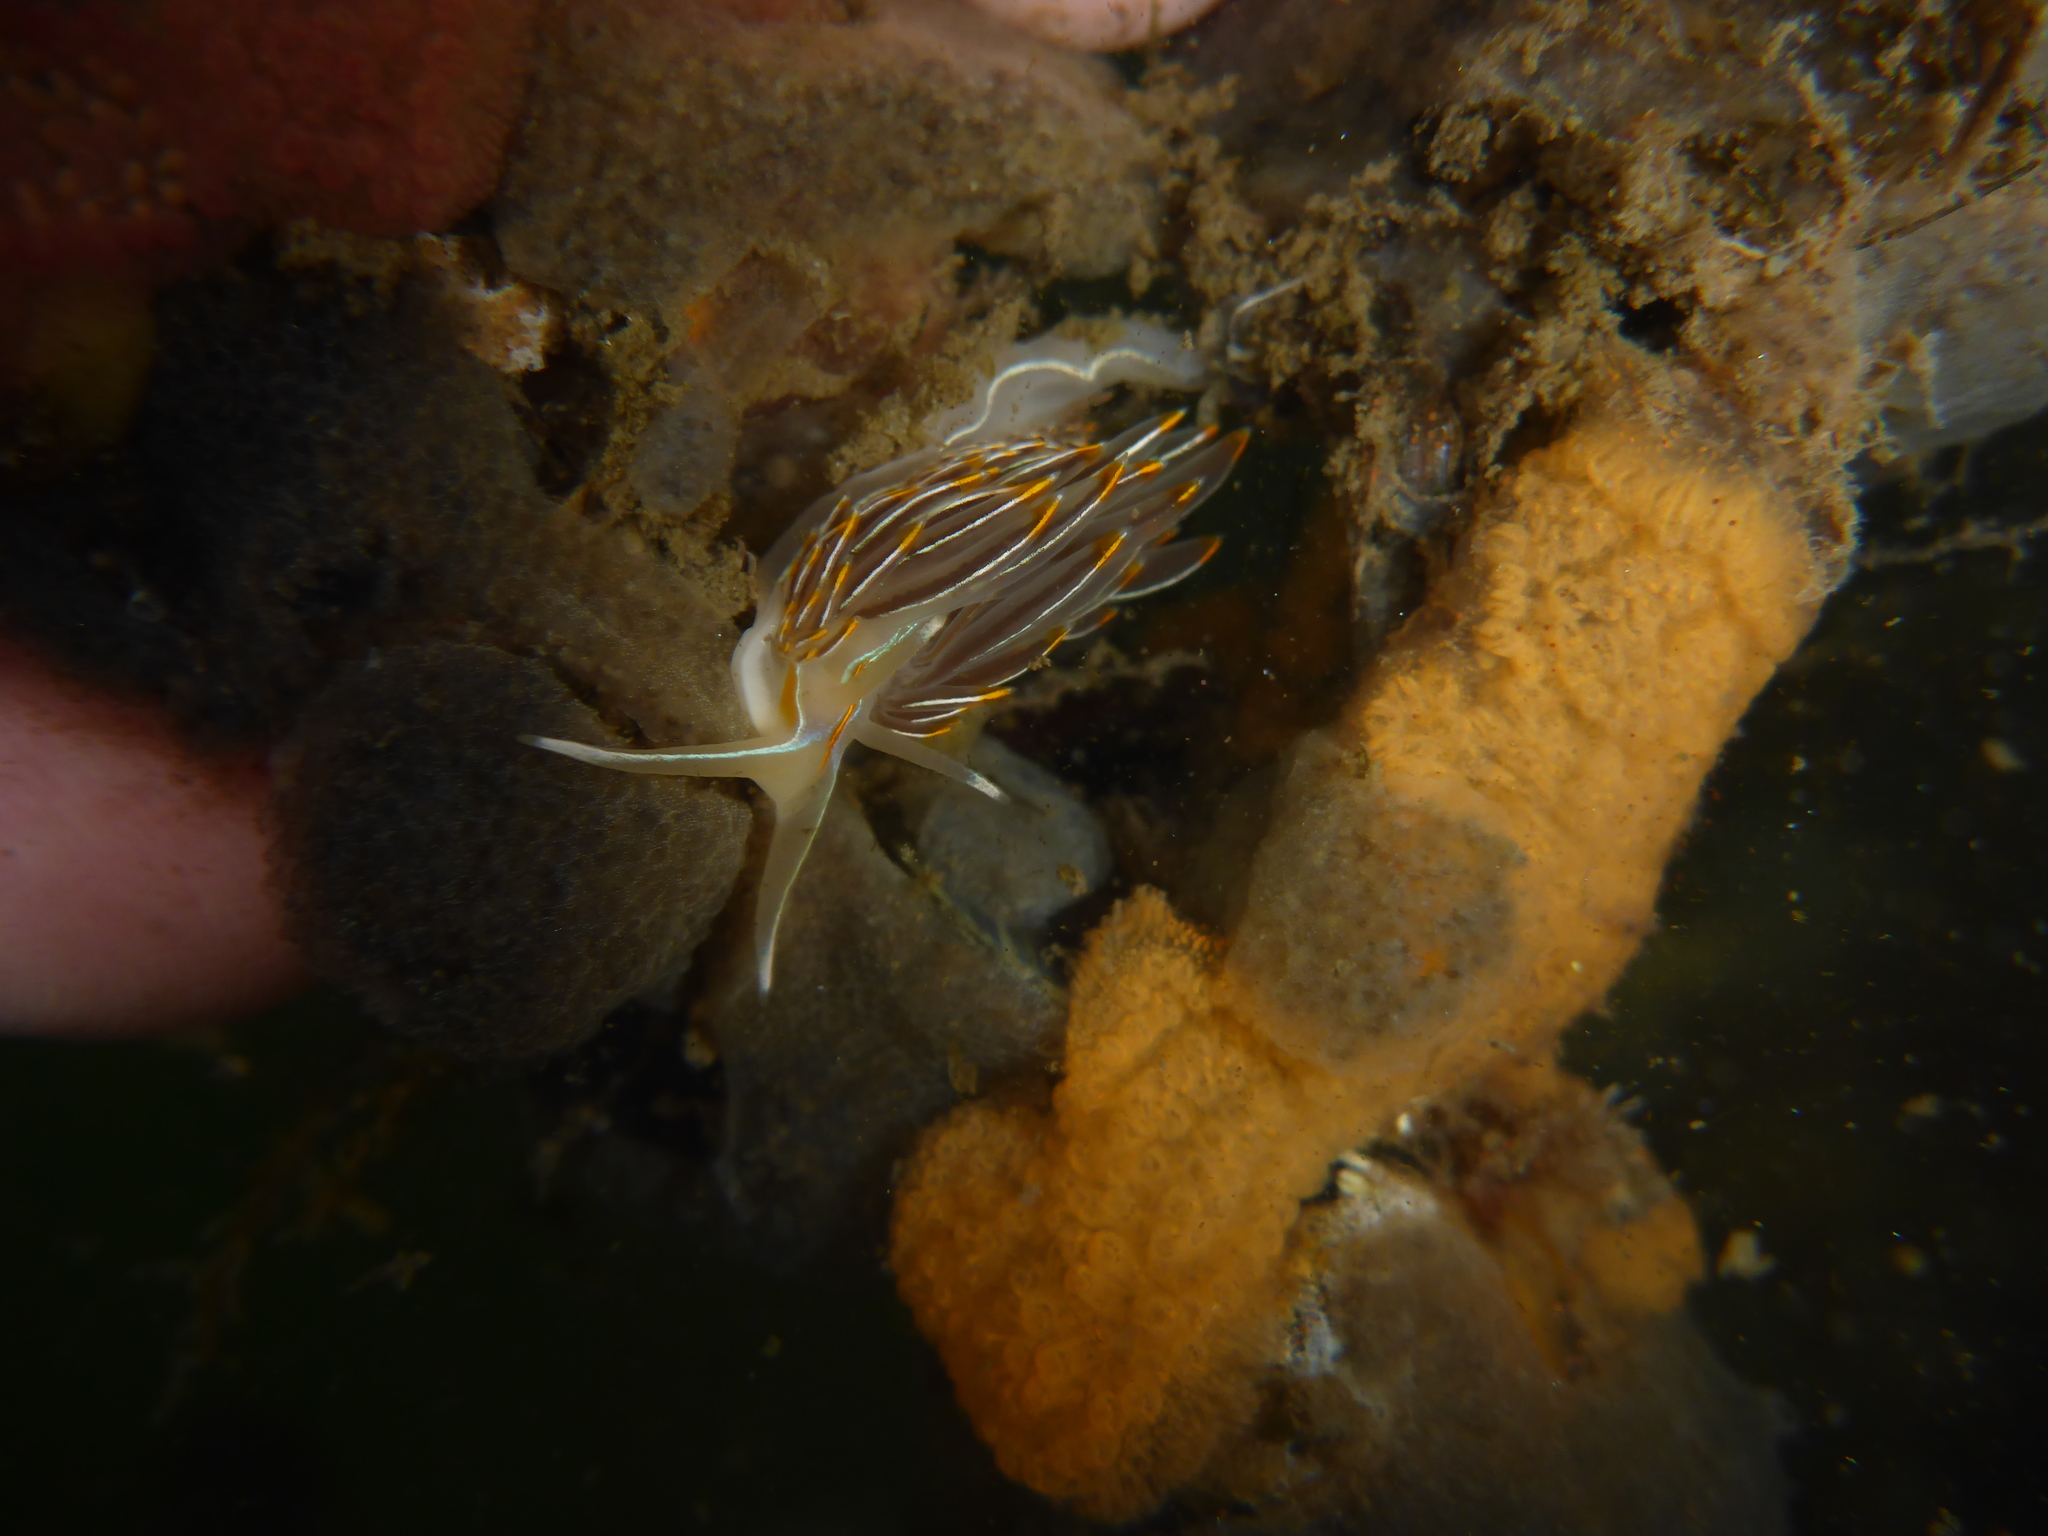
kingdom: Animalia
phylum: Mollusca
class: Gastropoda
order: Nudibranchia
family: Myrrhinidae
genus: Hermissenda
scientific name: Hermissenda crassicornis
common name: Hermissenda
